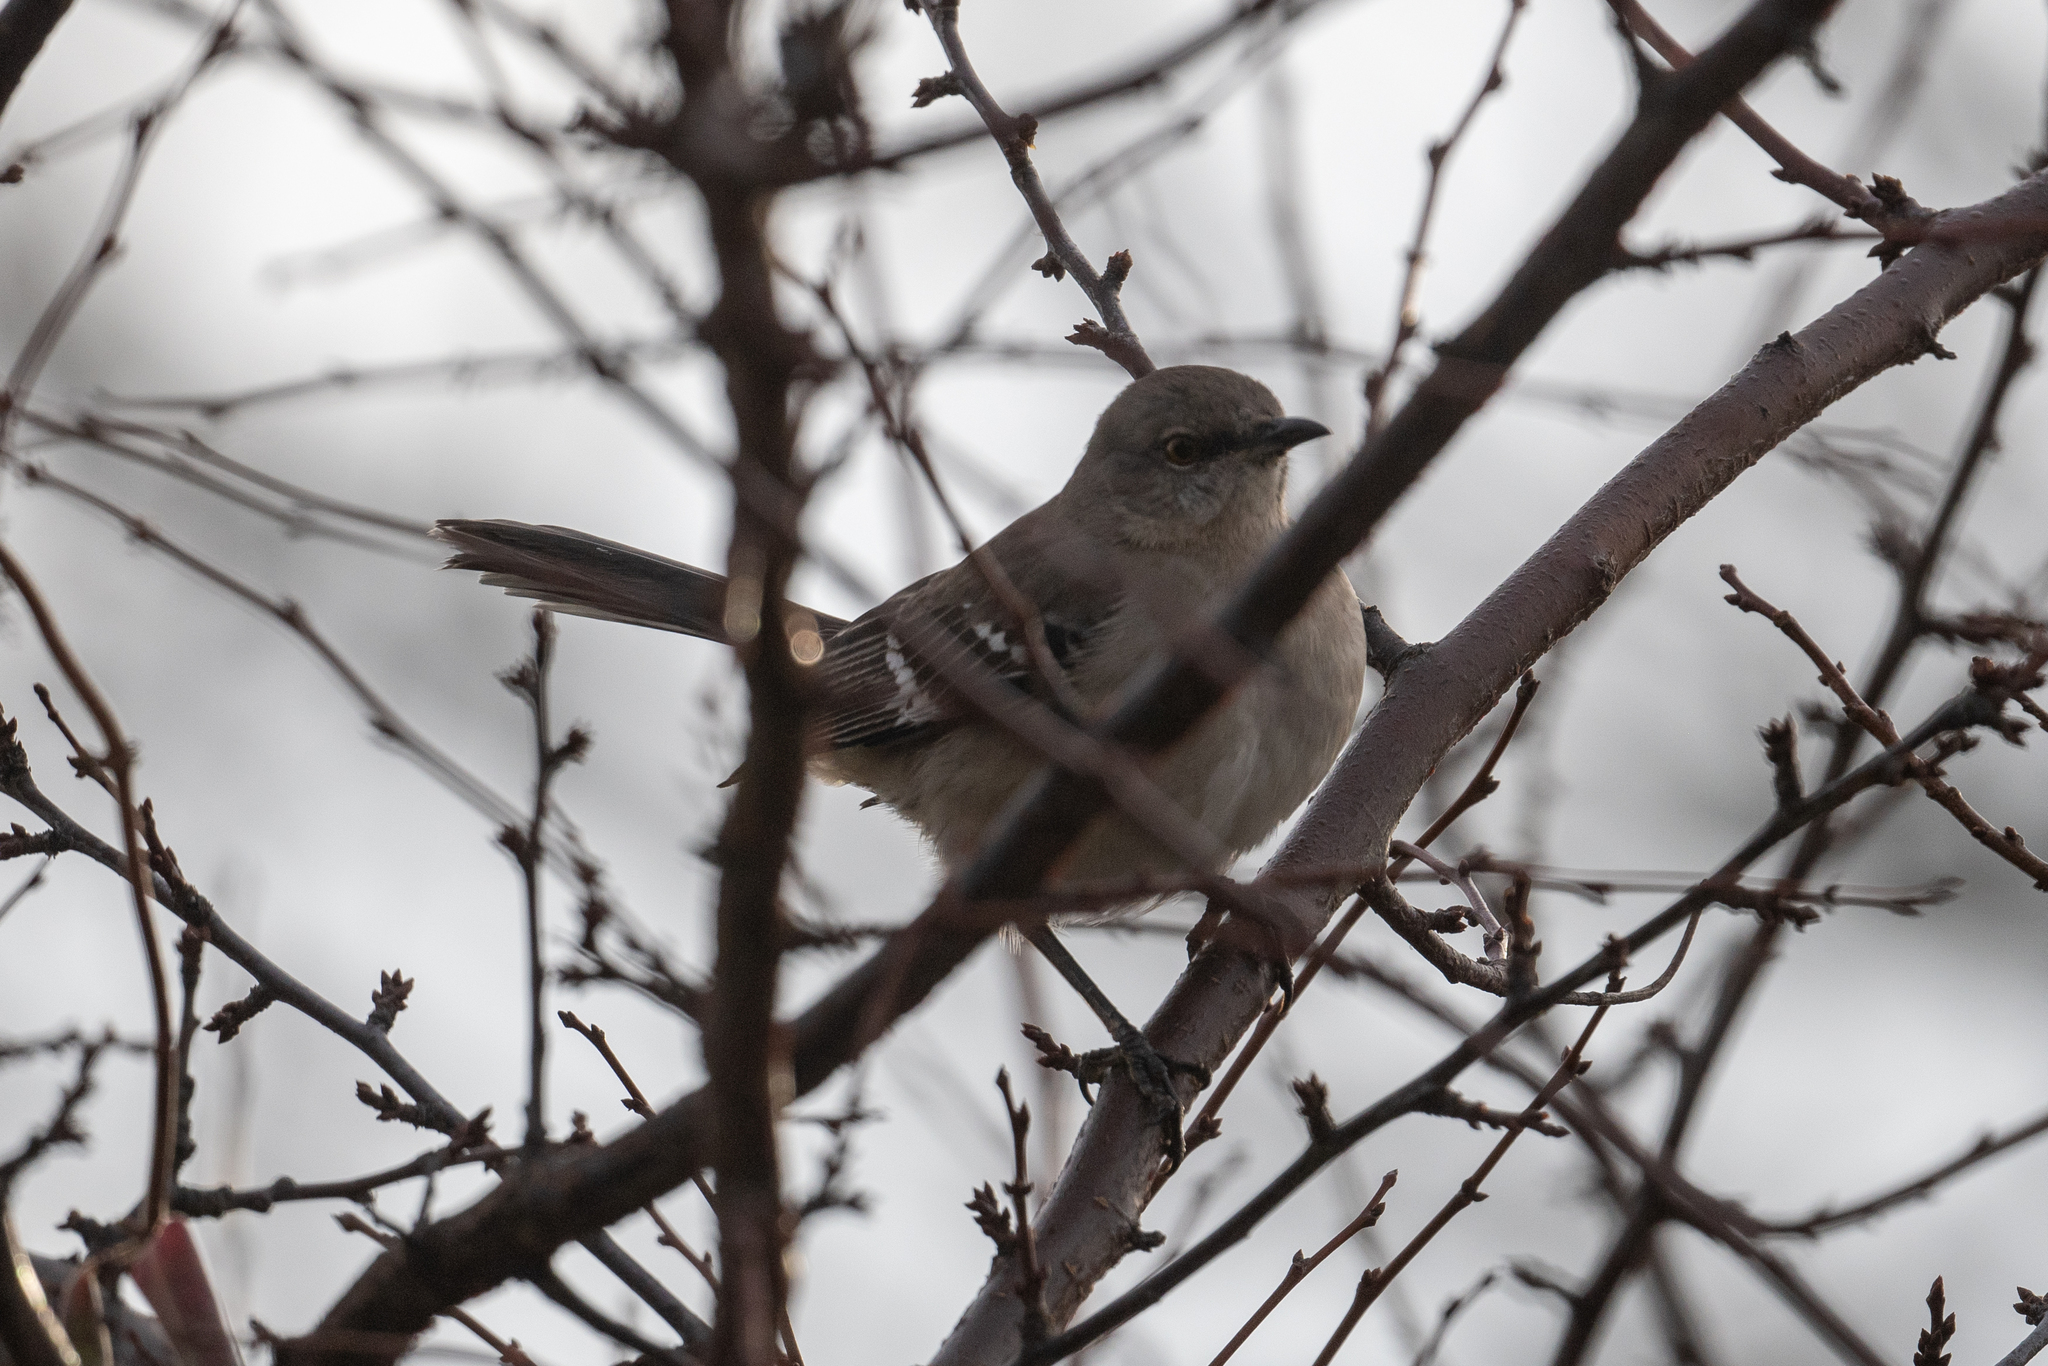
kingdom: Animalia
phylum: Chordata
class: Aves
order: Passeriformes
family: Mimidae
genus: Mimus
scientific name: Mimus polyglottos
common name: Northern mockingbird
